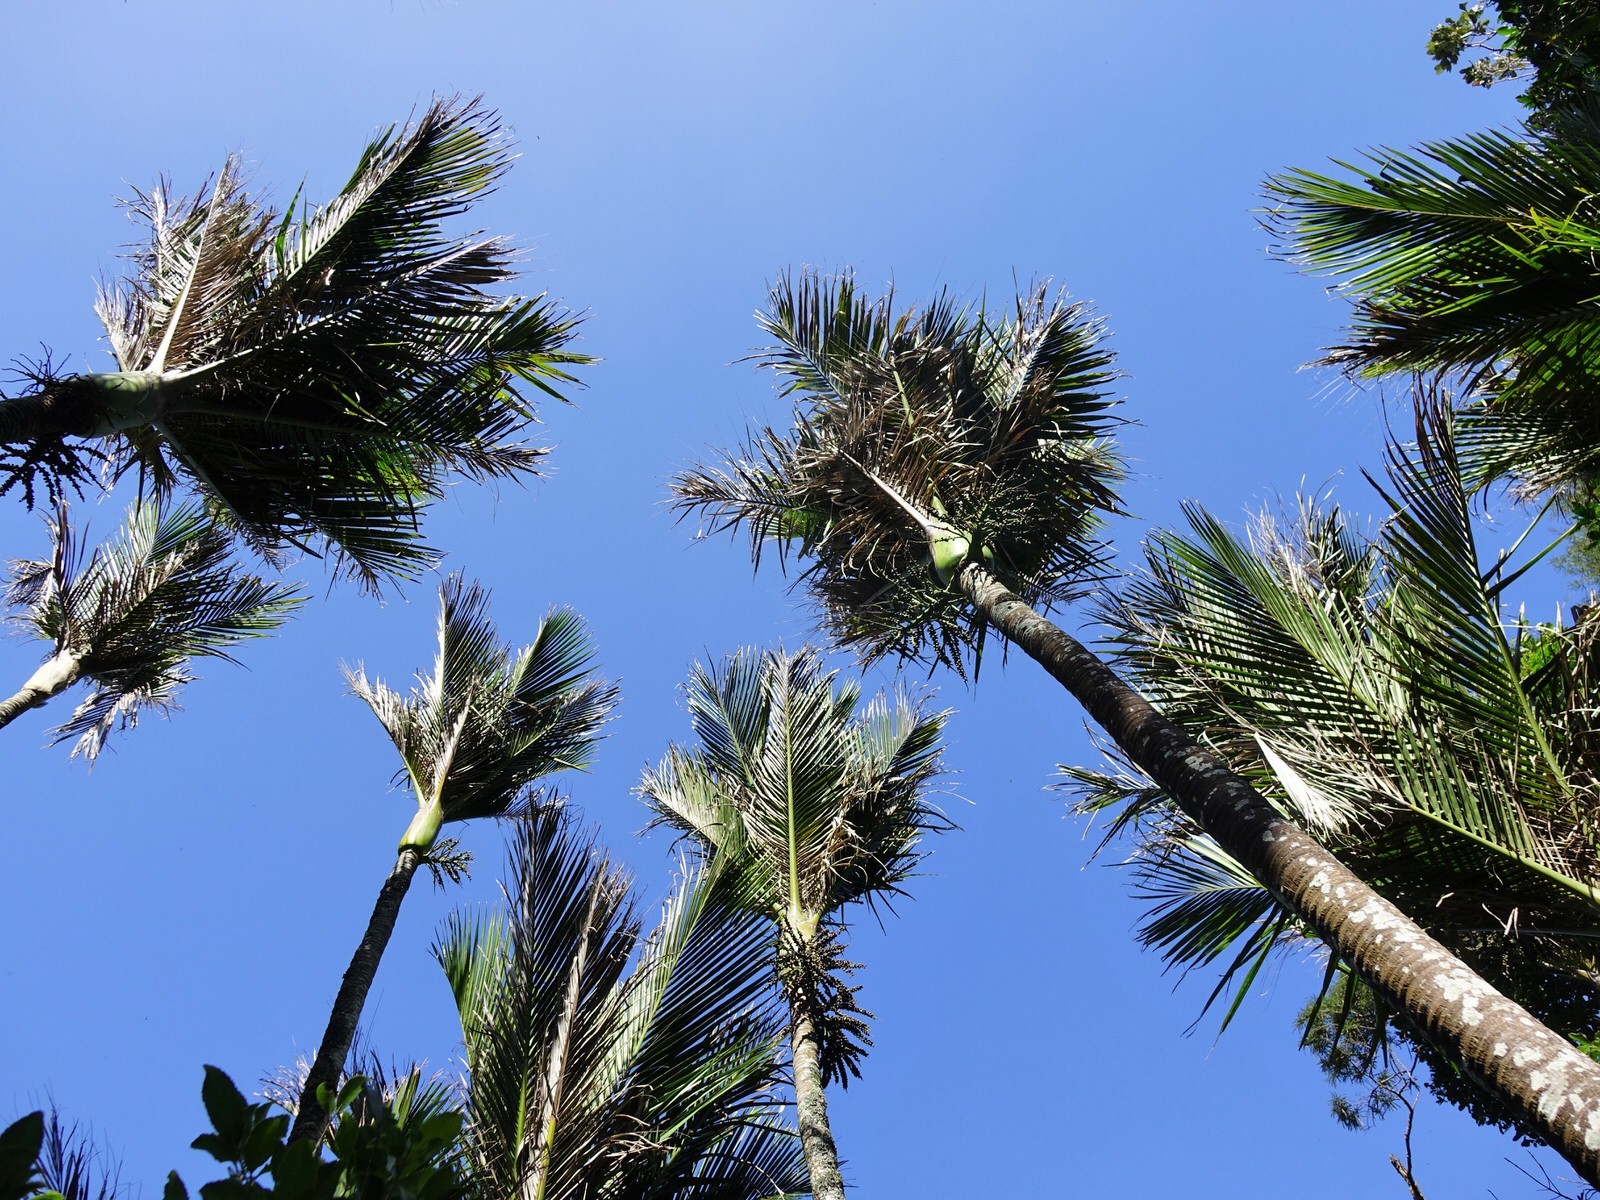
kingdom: Plantae
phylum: Tracheophyta
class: Liliopsida
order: Arecales
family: Arecaceae
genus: Rhopalostylis
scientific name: Rhopalostylis sapida
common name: Feather-duster palm
